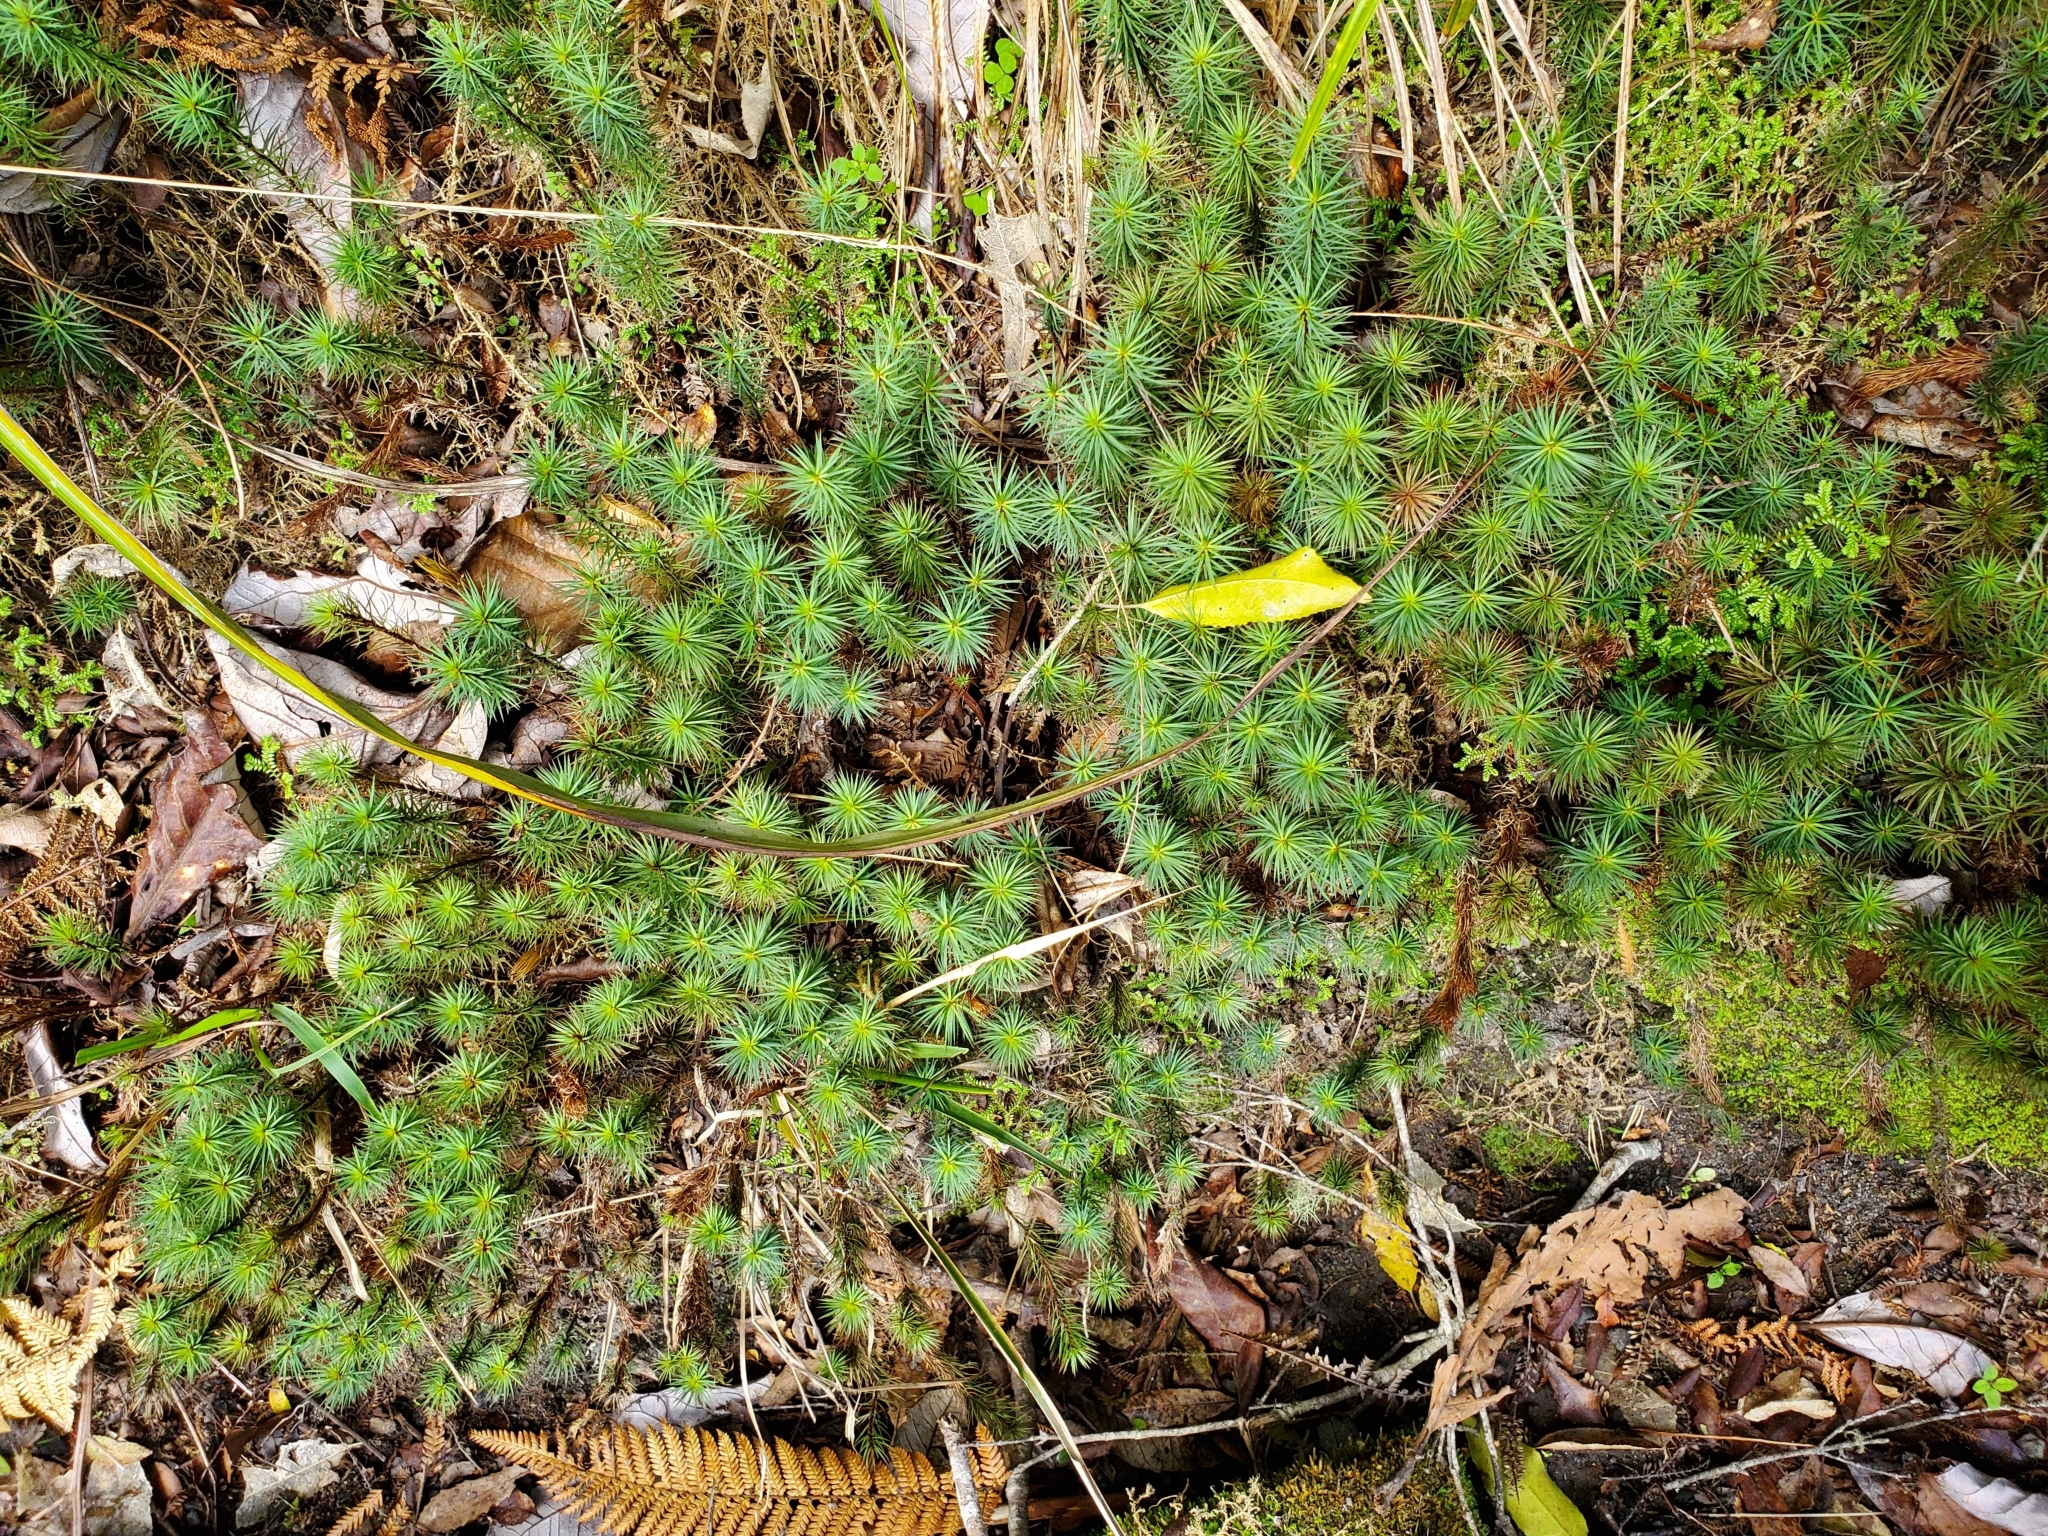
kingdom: Plantae
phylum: Bryophyta
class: Polytrichopsida
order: Polytrichales
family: Polytrichaceae
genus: Dawsonia
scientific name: Dawsonia superba
